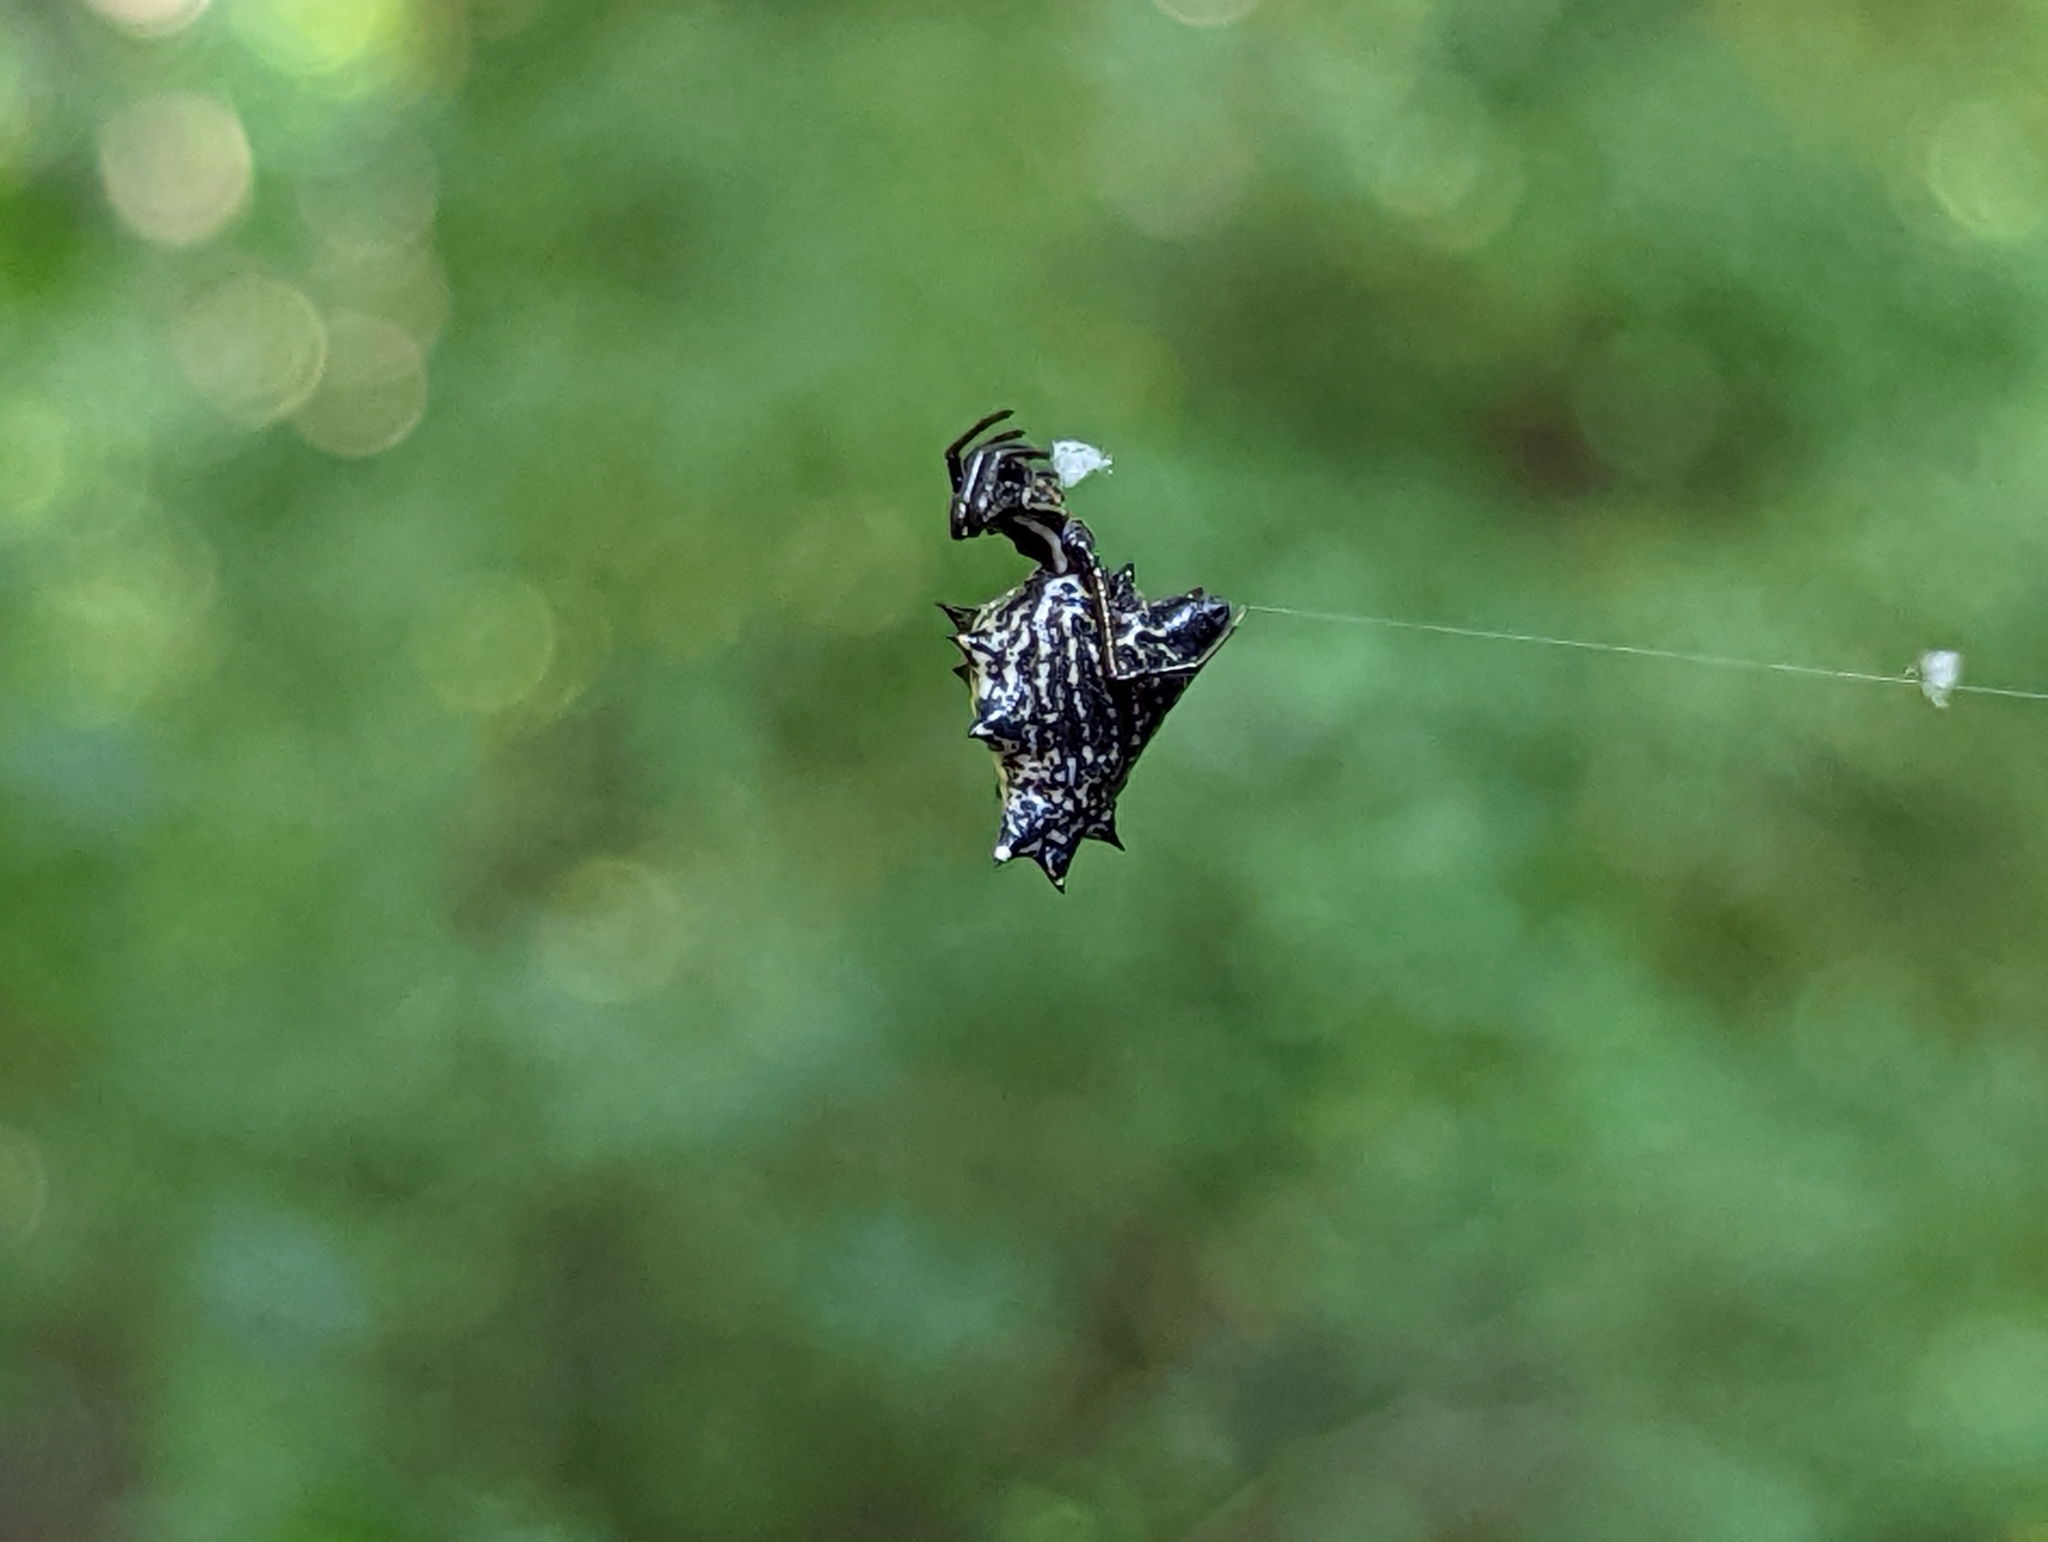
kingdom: Animalia
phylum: Arthropoda
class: Arachnida
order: Araneae
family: Araneidae
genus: Micrathena
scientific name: Micrathena gracilis
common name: Orb weavers
